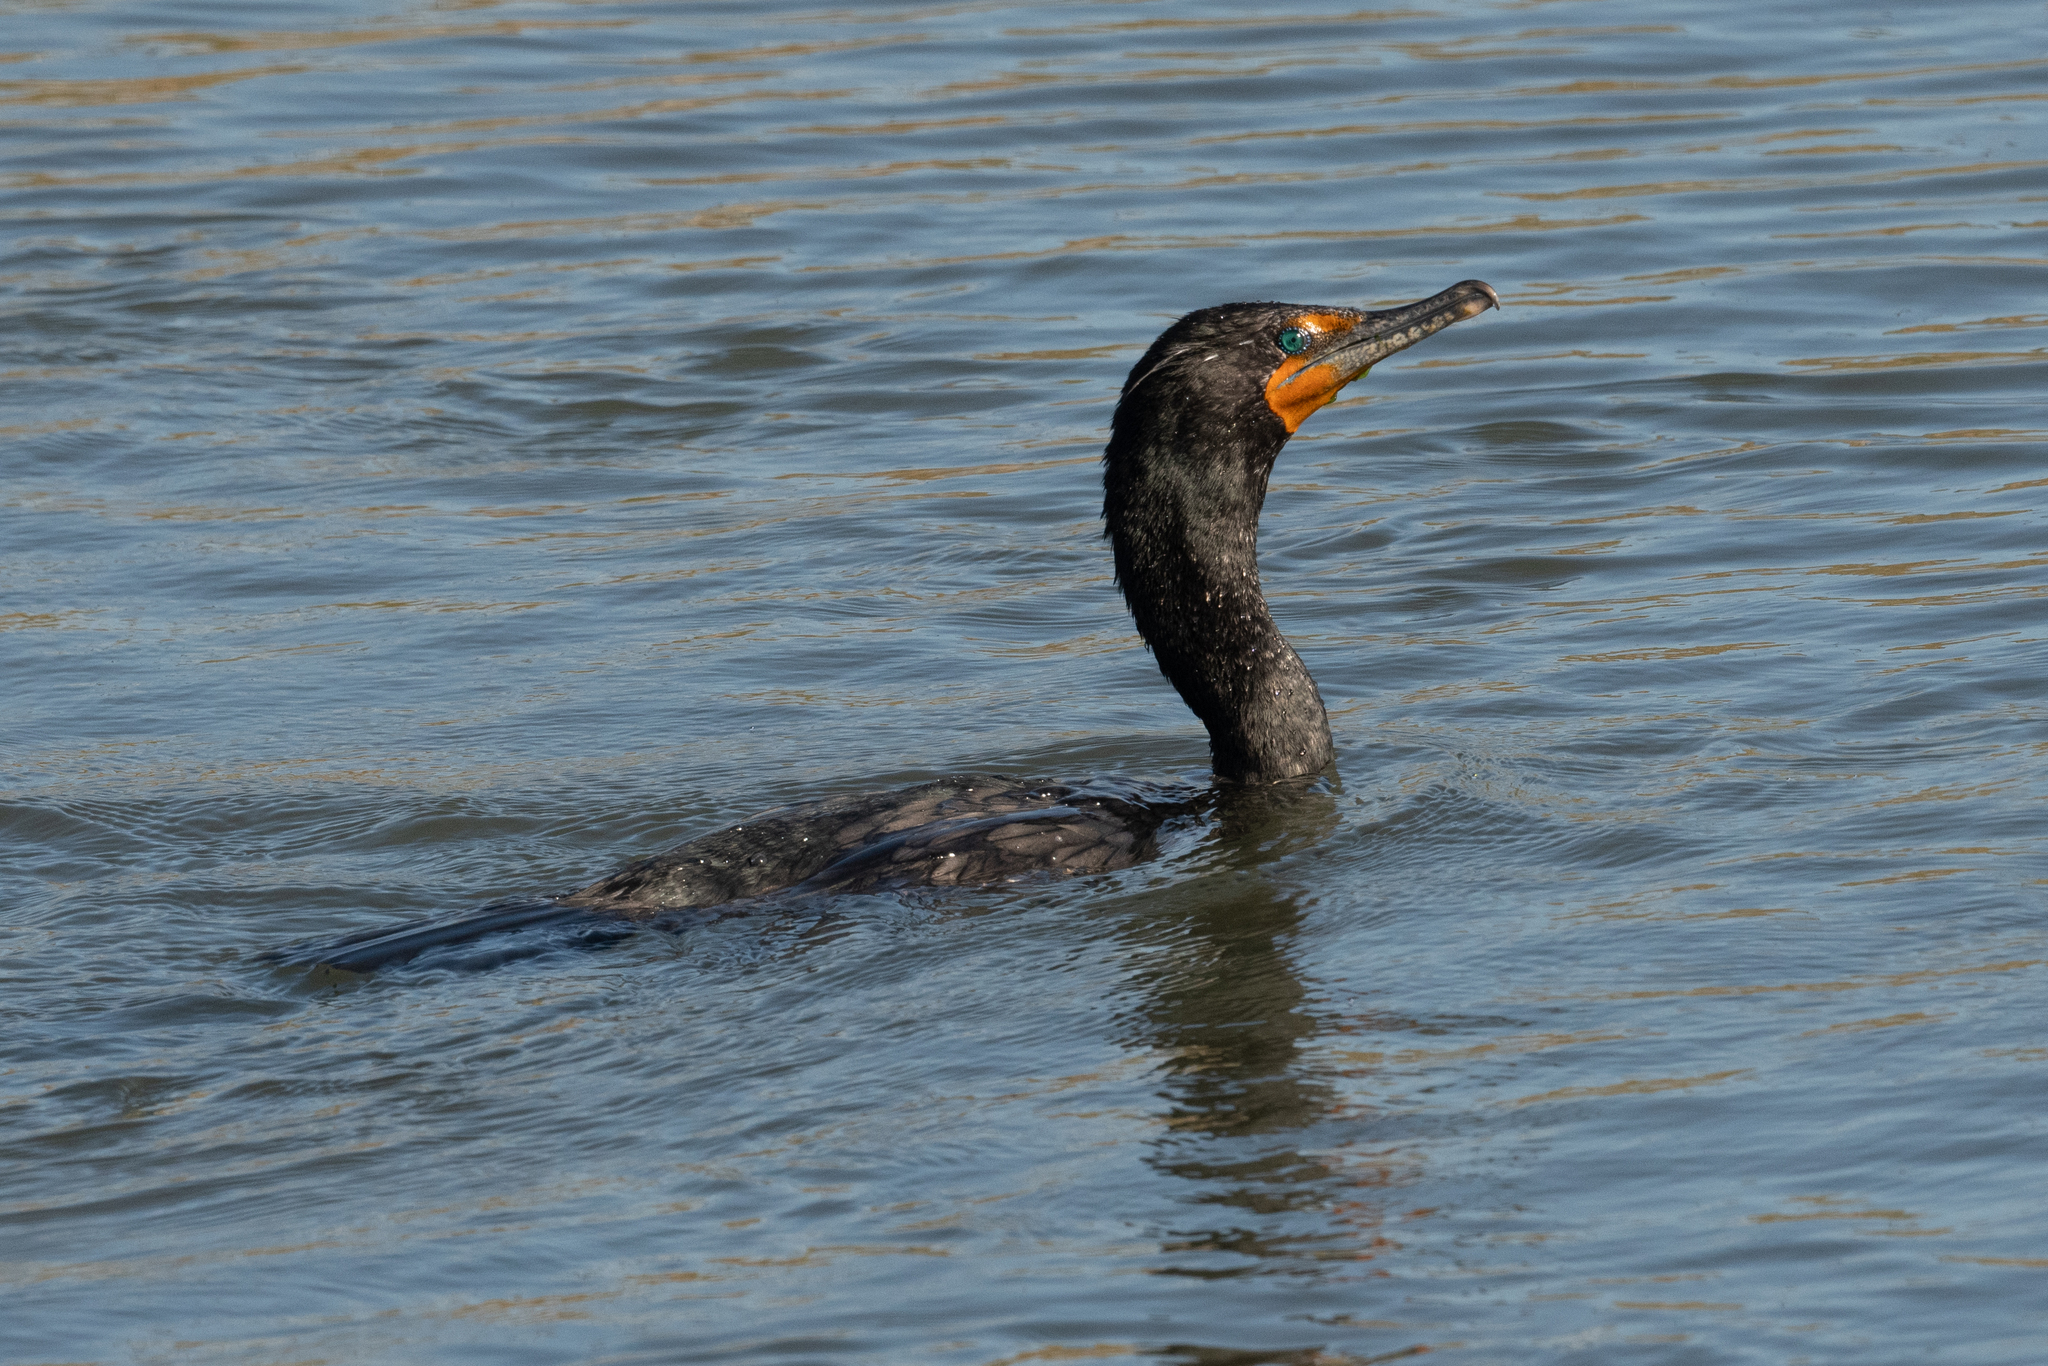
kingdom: Animalia
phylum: Chordata
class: Aves
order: Suliformes
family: Phalacrocoracidae
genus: Phalacrocorax
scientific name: Phalacrocorax auritus
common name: Double-crested cormorant
